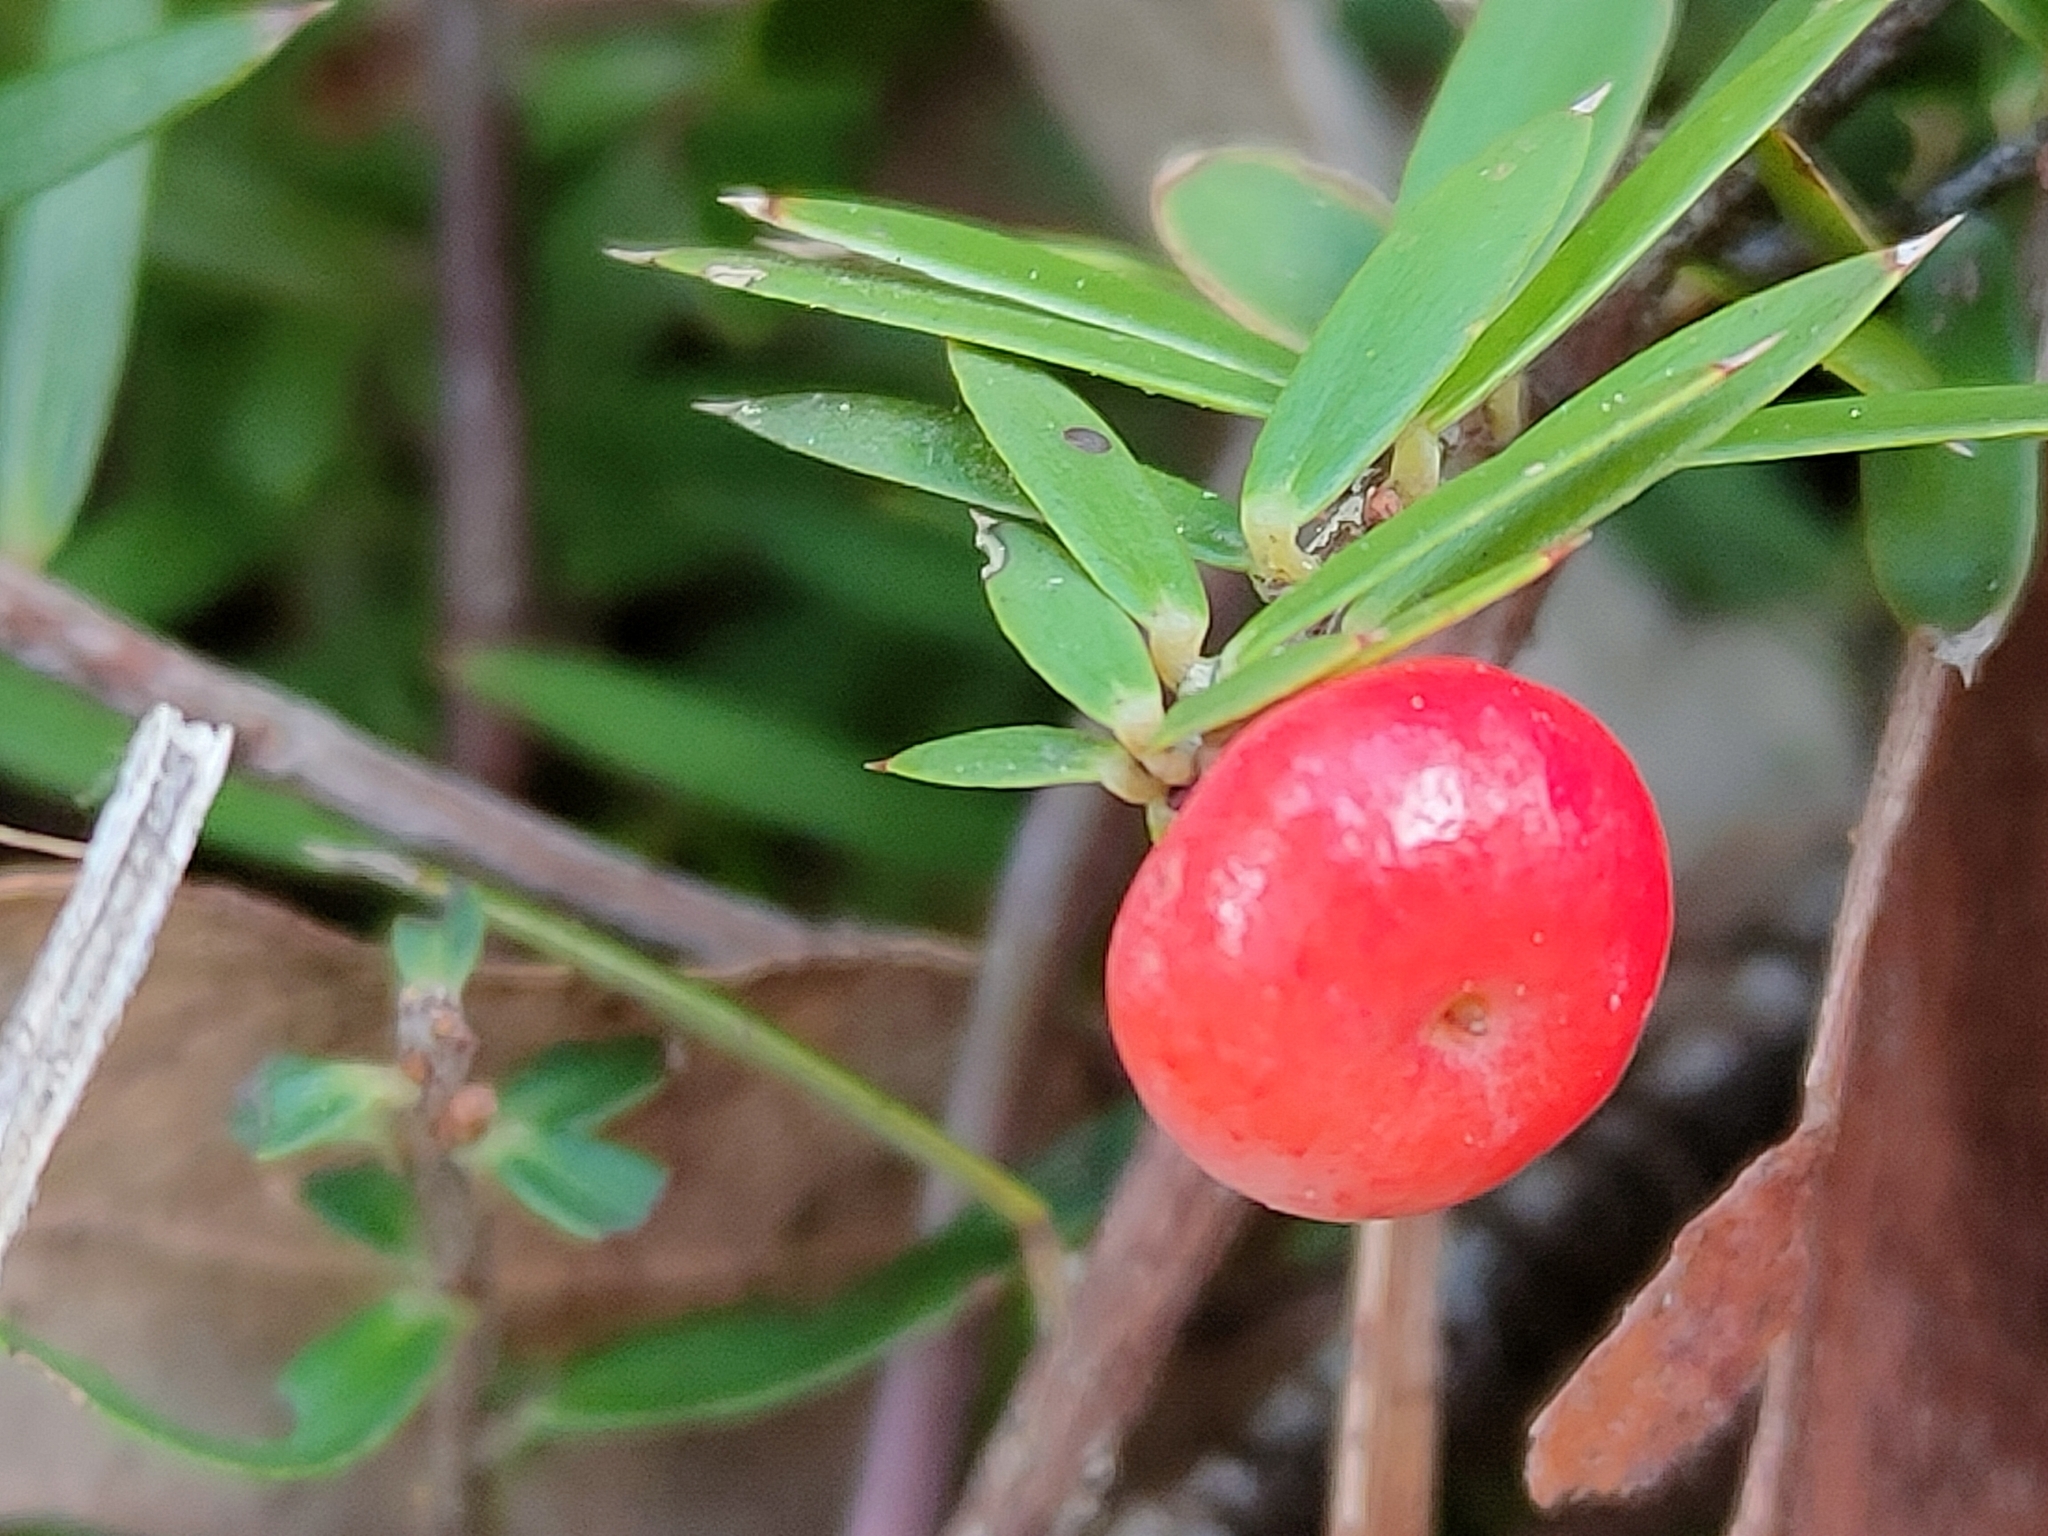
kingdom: Plantae
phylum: Tracheophyta
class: Magnoliopsida
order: Ericales
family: Ericaceae
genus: Acrotriche
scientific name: Acrotriche aggregata
